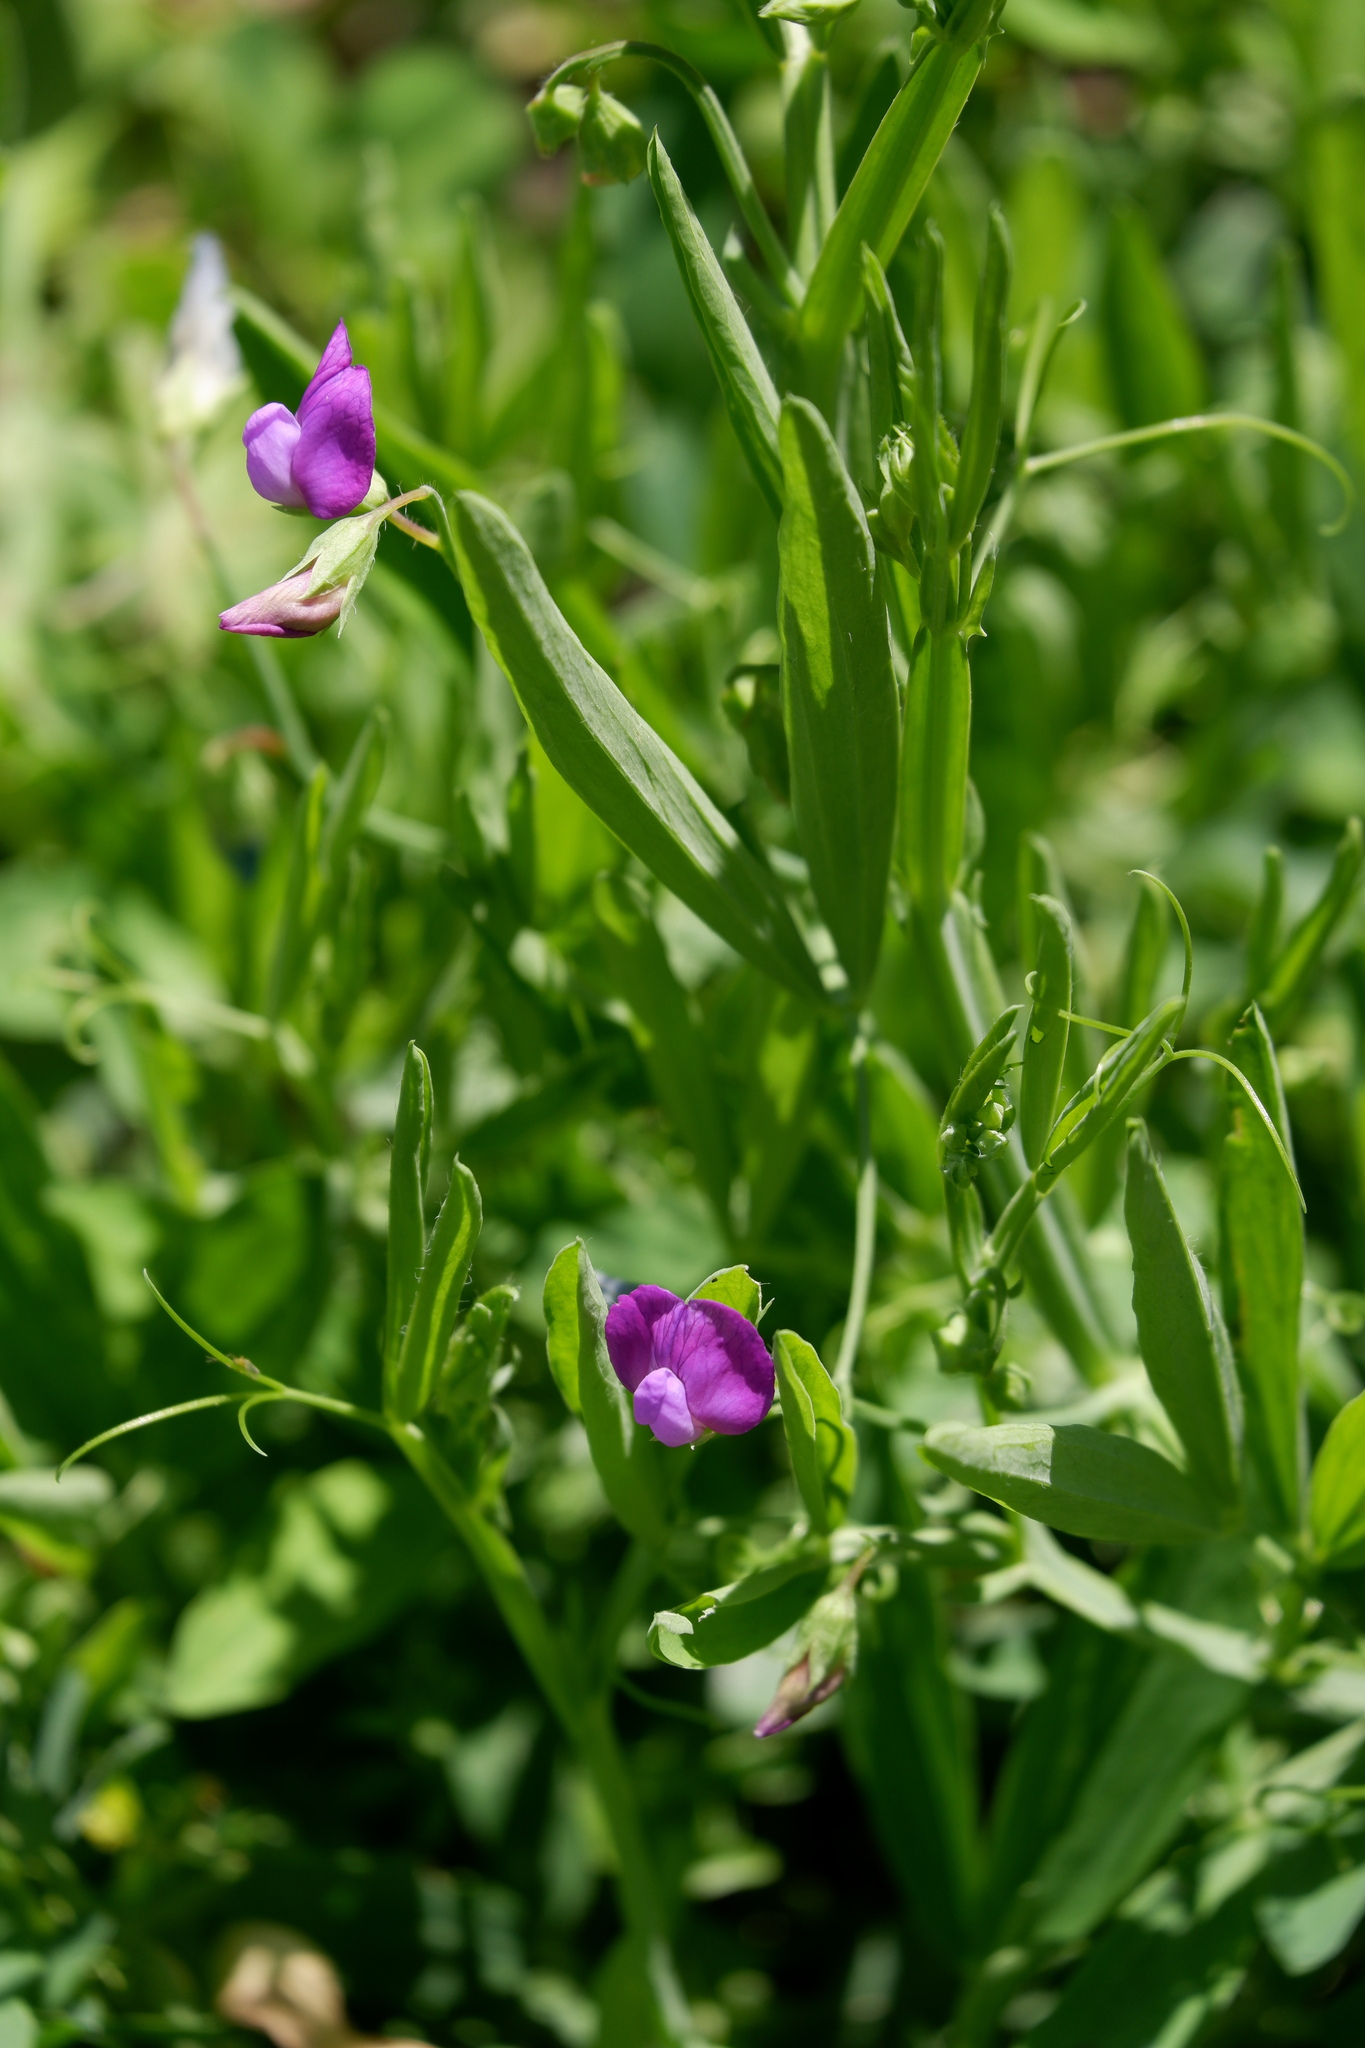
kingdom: Plantae
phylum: Tracheophyta
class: Magnoliopsida
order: Fabales
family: Fabaceae
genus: Lathyrus
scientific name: Lathyrus hirsutus
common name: Hairy vetchling
